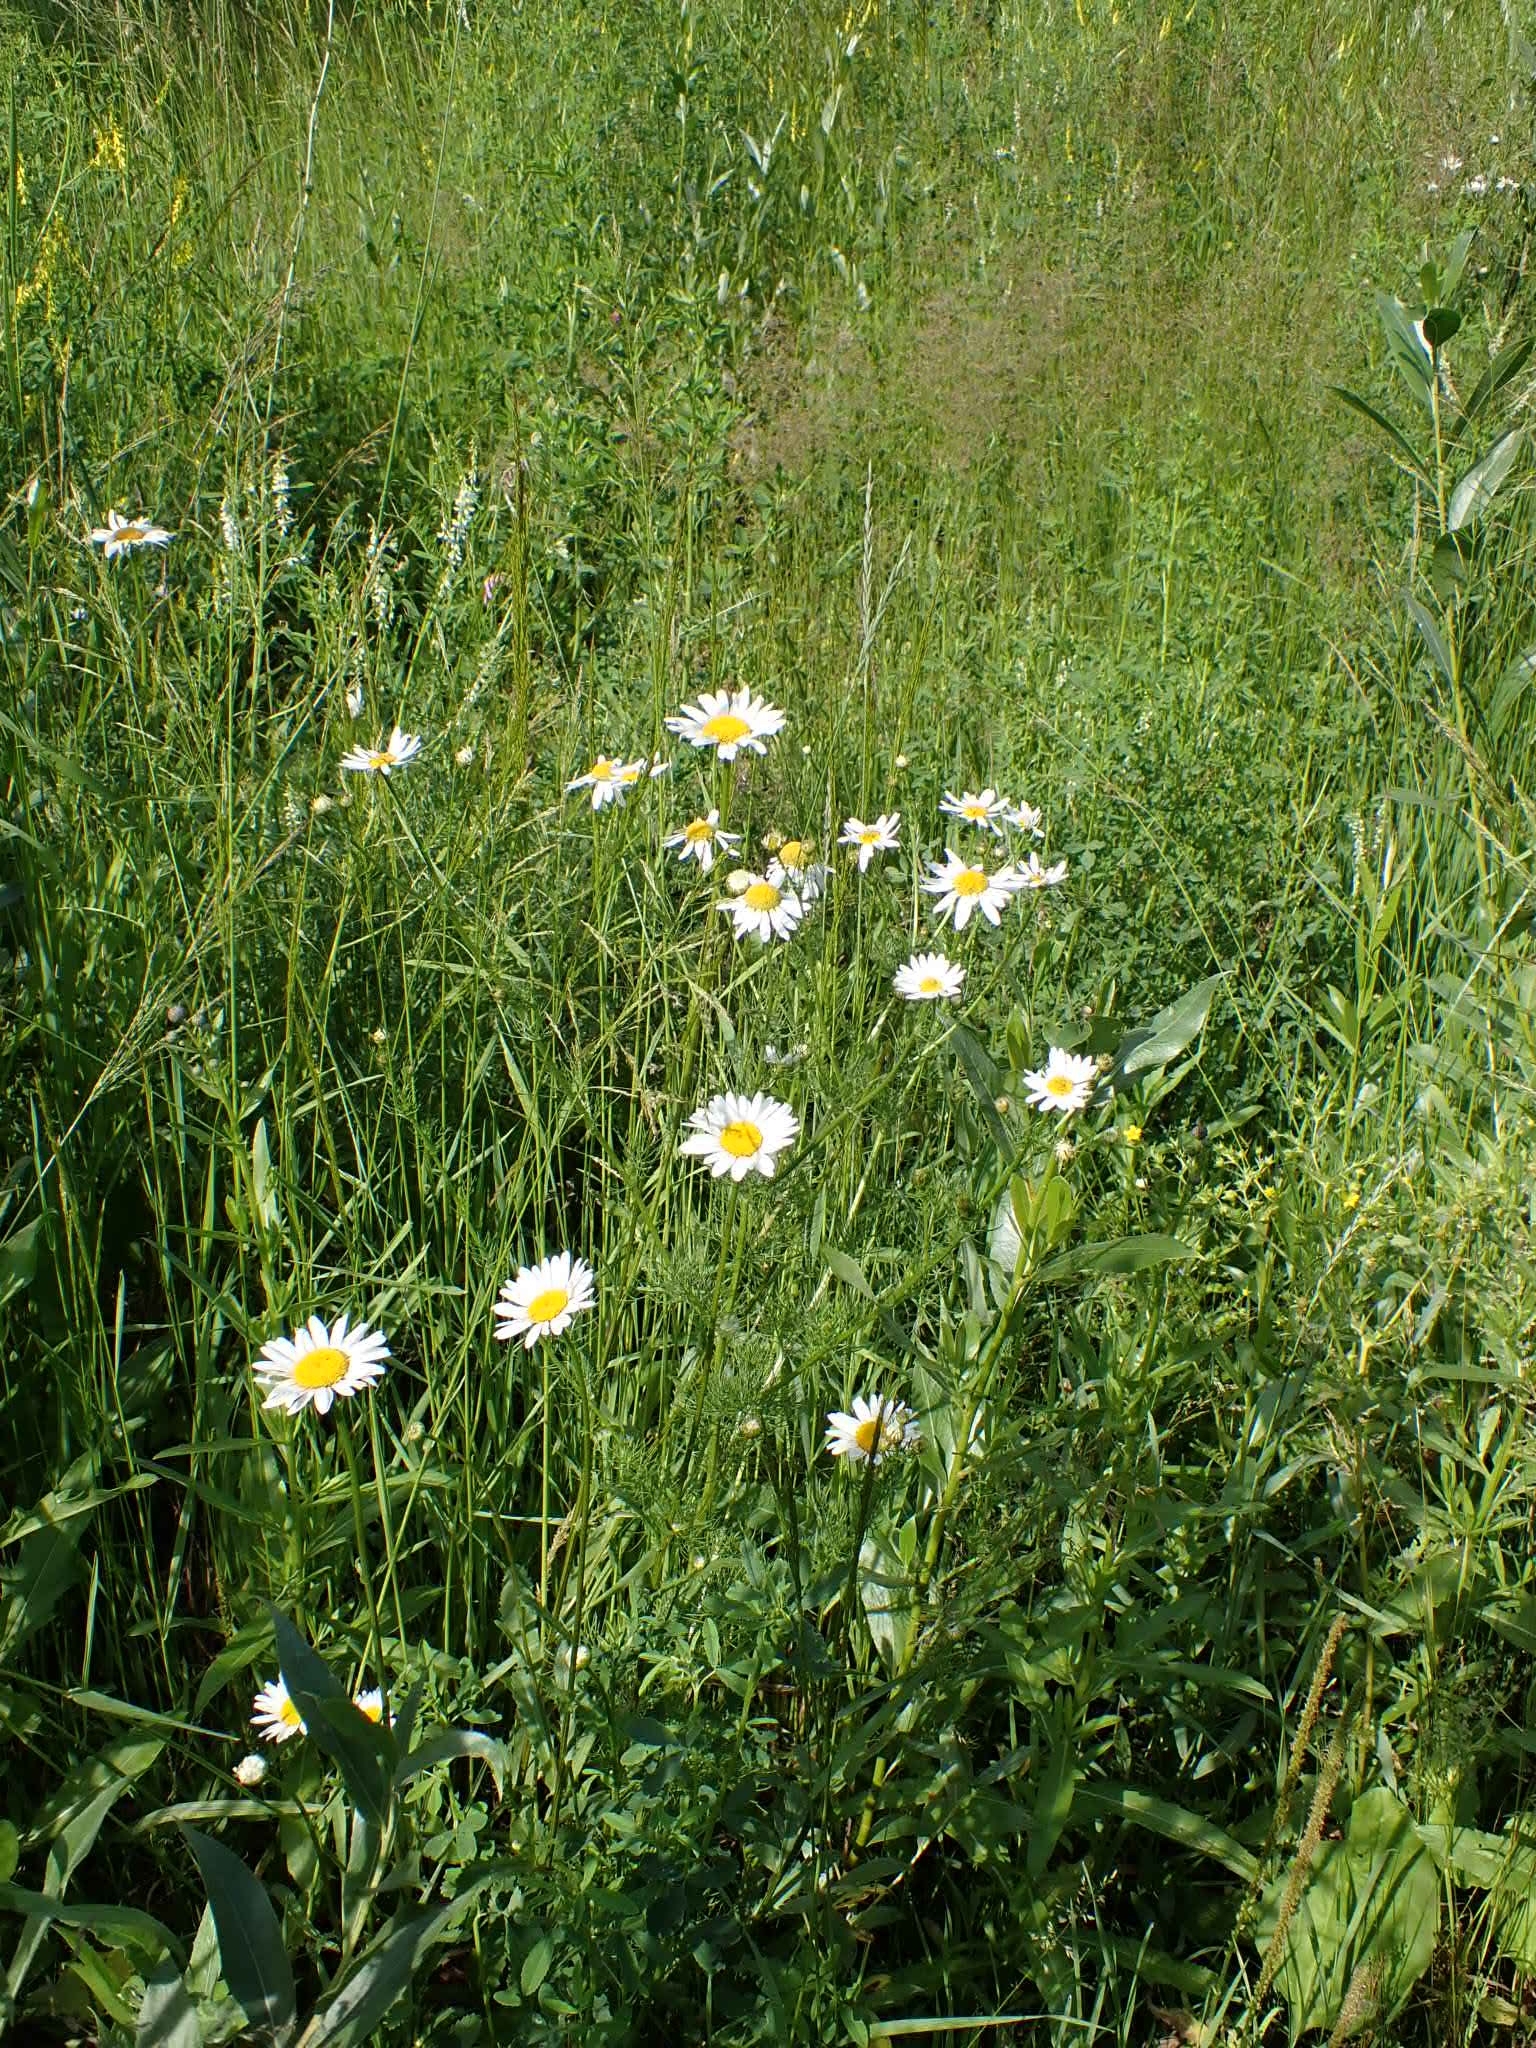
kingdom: Plantae
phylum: Tracheophyta
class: Magnoliopsida
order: Asterales
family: Asteraceae
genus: Tripleurospermum
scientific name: Tripleurospermum inodorum
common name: Scentless mayweed
